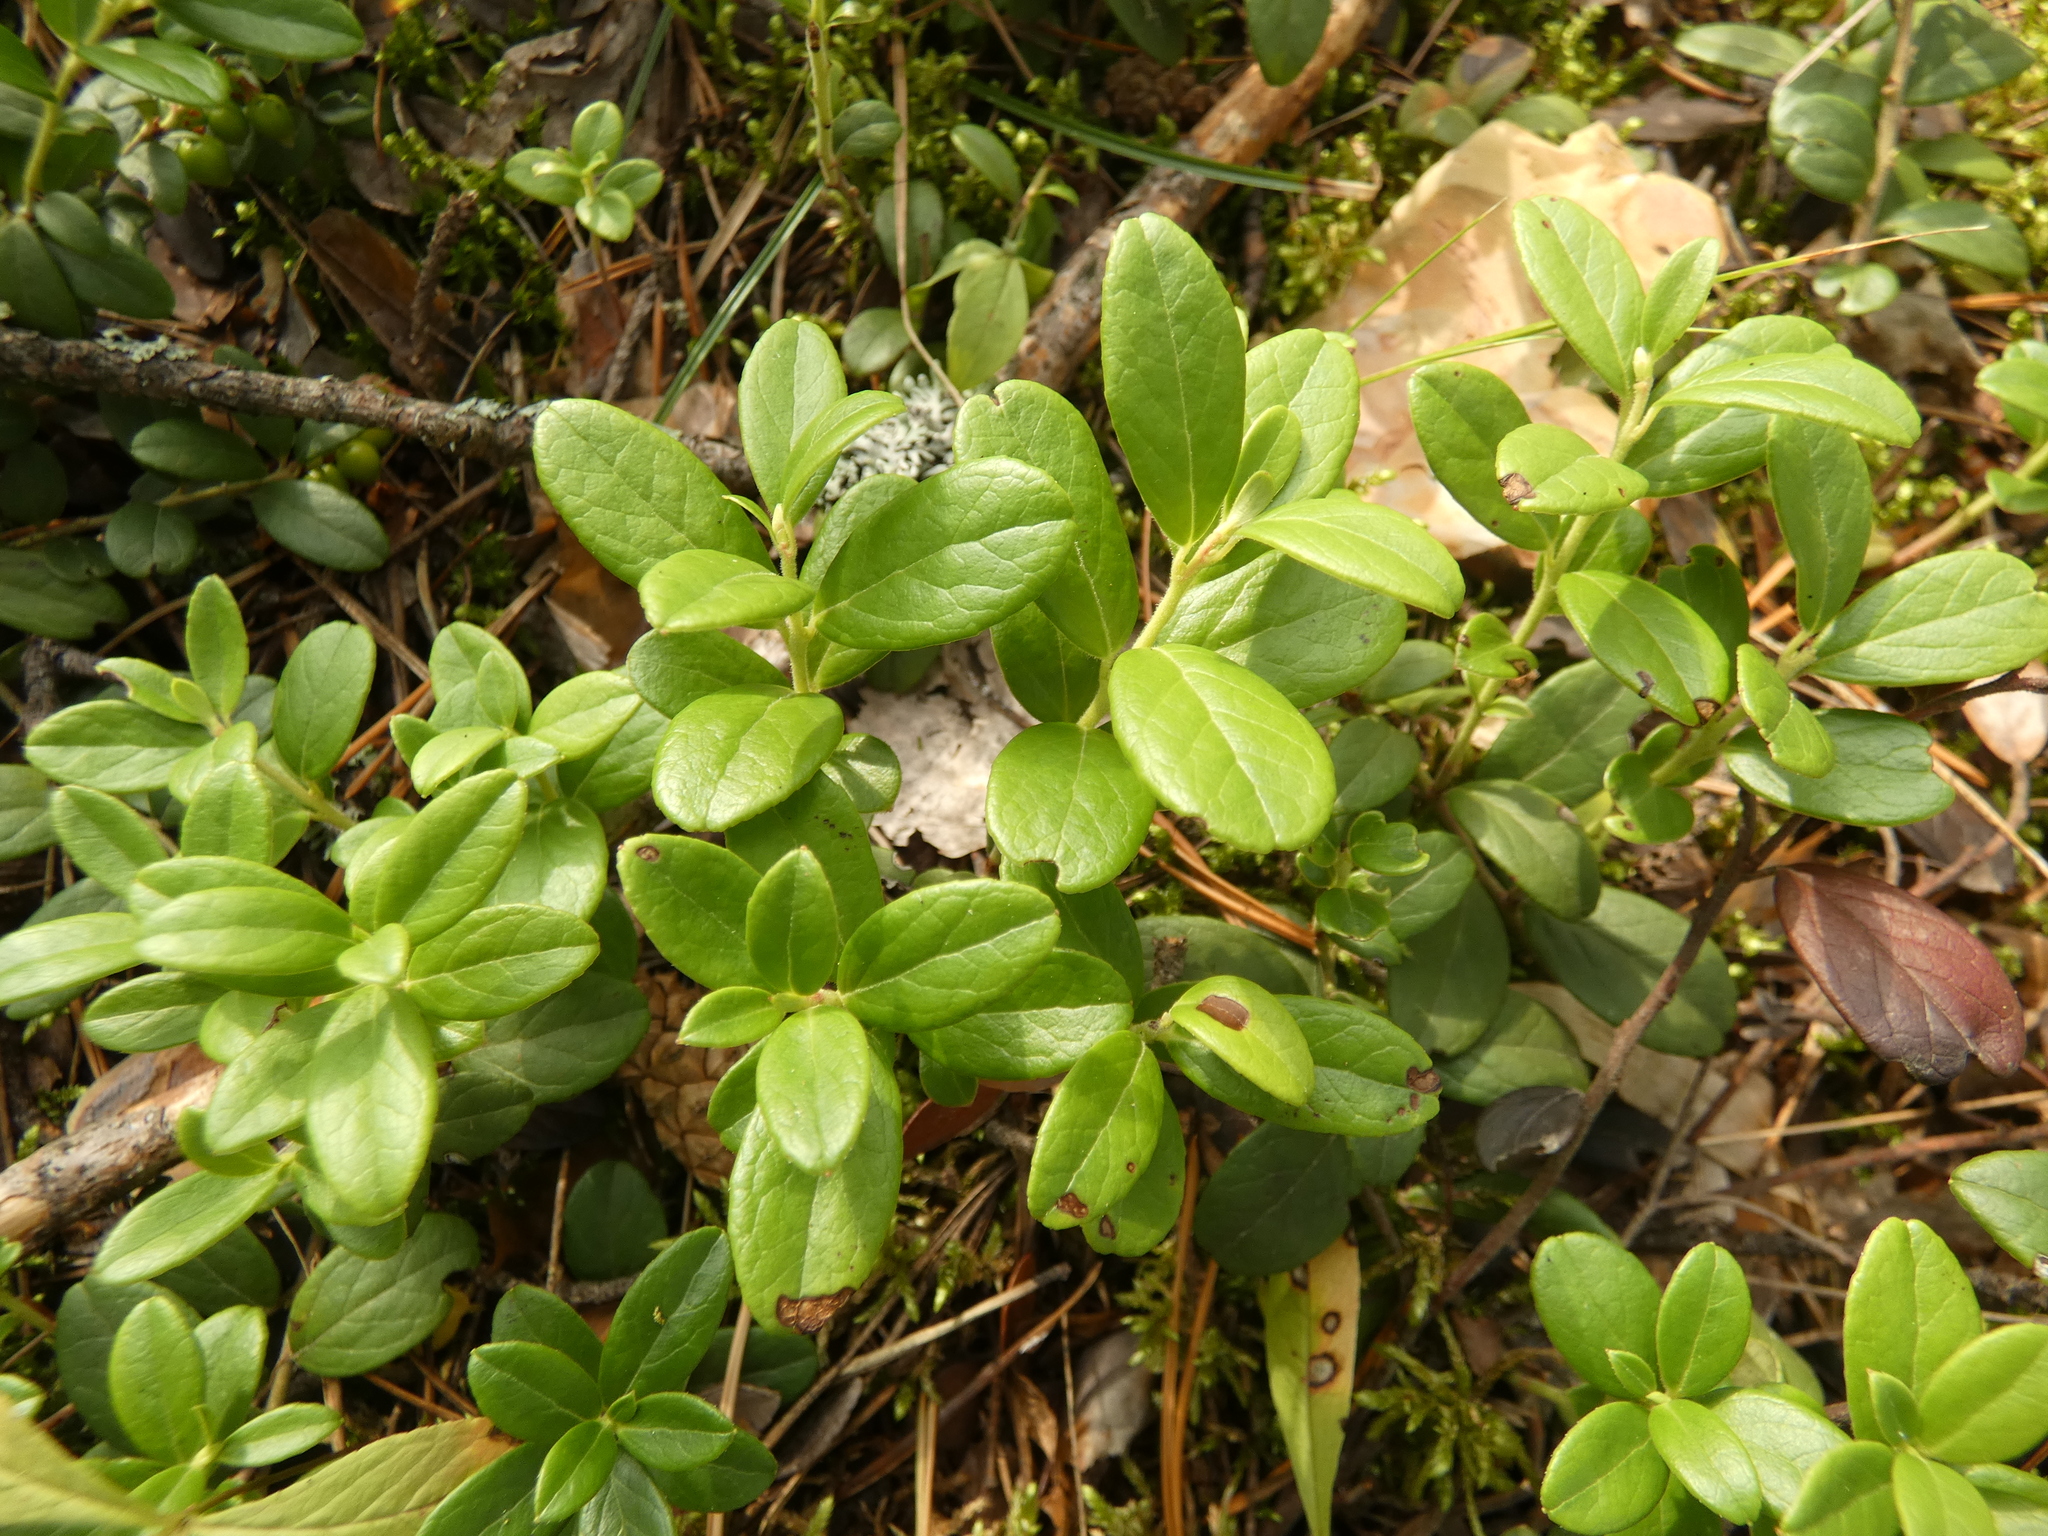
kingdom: Plantae
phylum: Tracheophyta
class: Magnoliopsida
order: Ericales
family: Ericaceae
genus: Vaccinium
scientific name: Vaccinium vitis-idaea
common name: Cowberry
